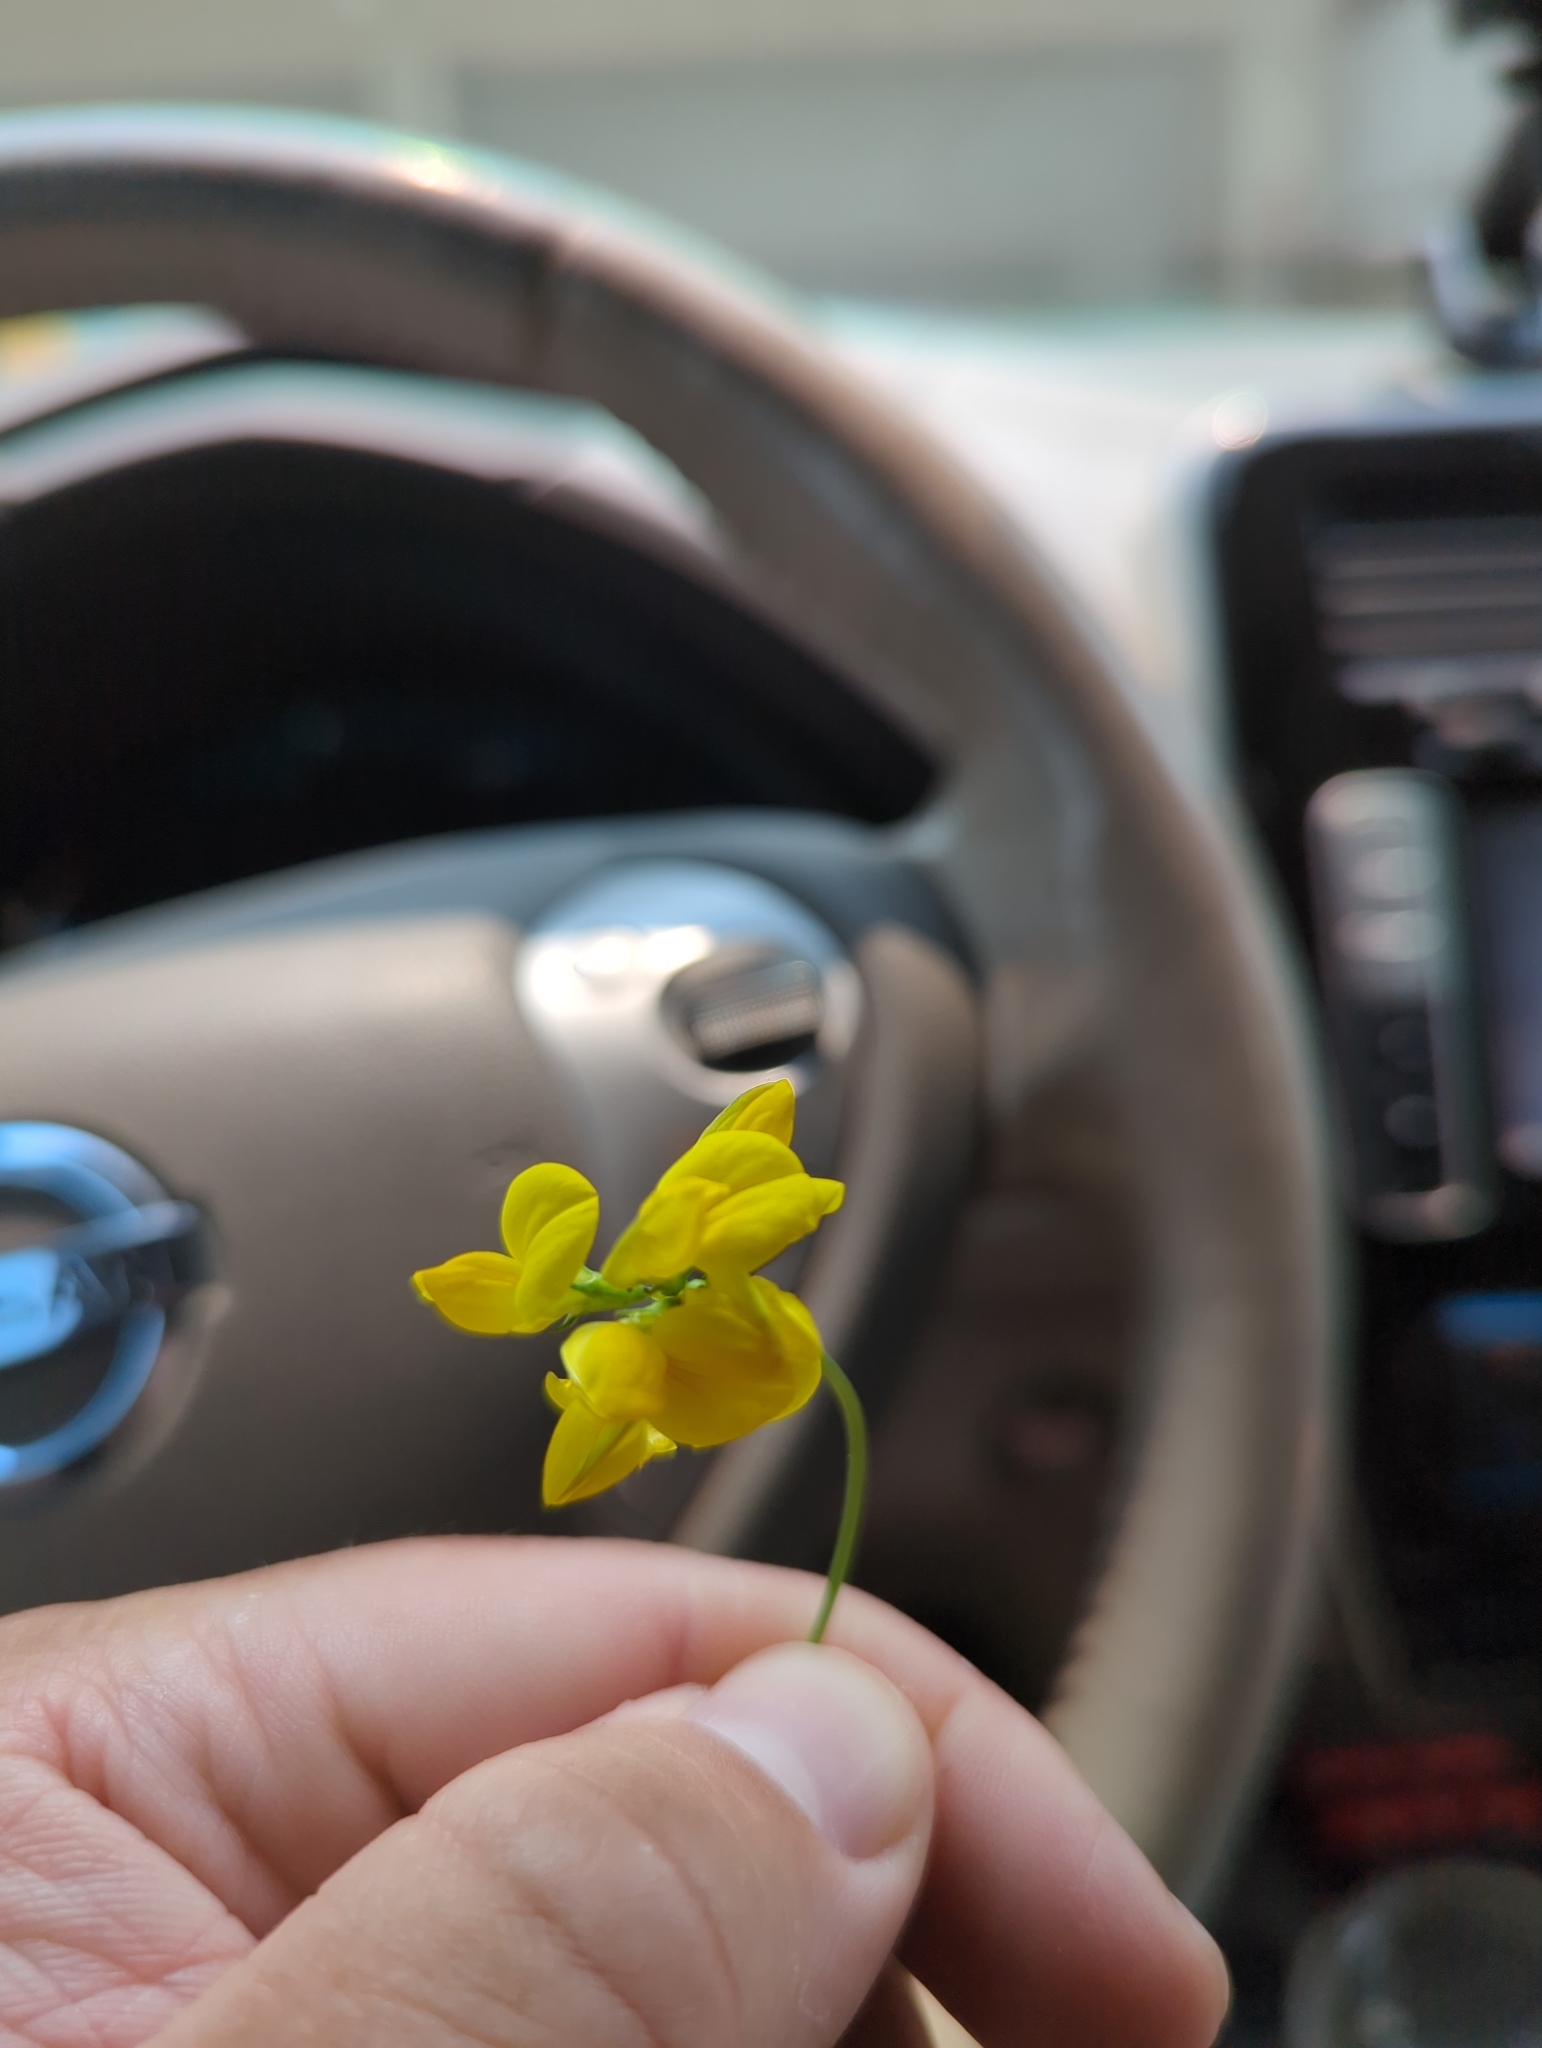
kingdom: Plantae
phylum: Tracheophyta
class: Magnoliopsida
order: Fabales
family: Fabaceae
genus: Lotus
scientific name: Lotus corniculatus
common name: Common bird's-foot-trefoil
